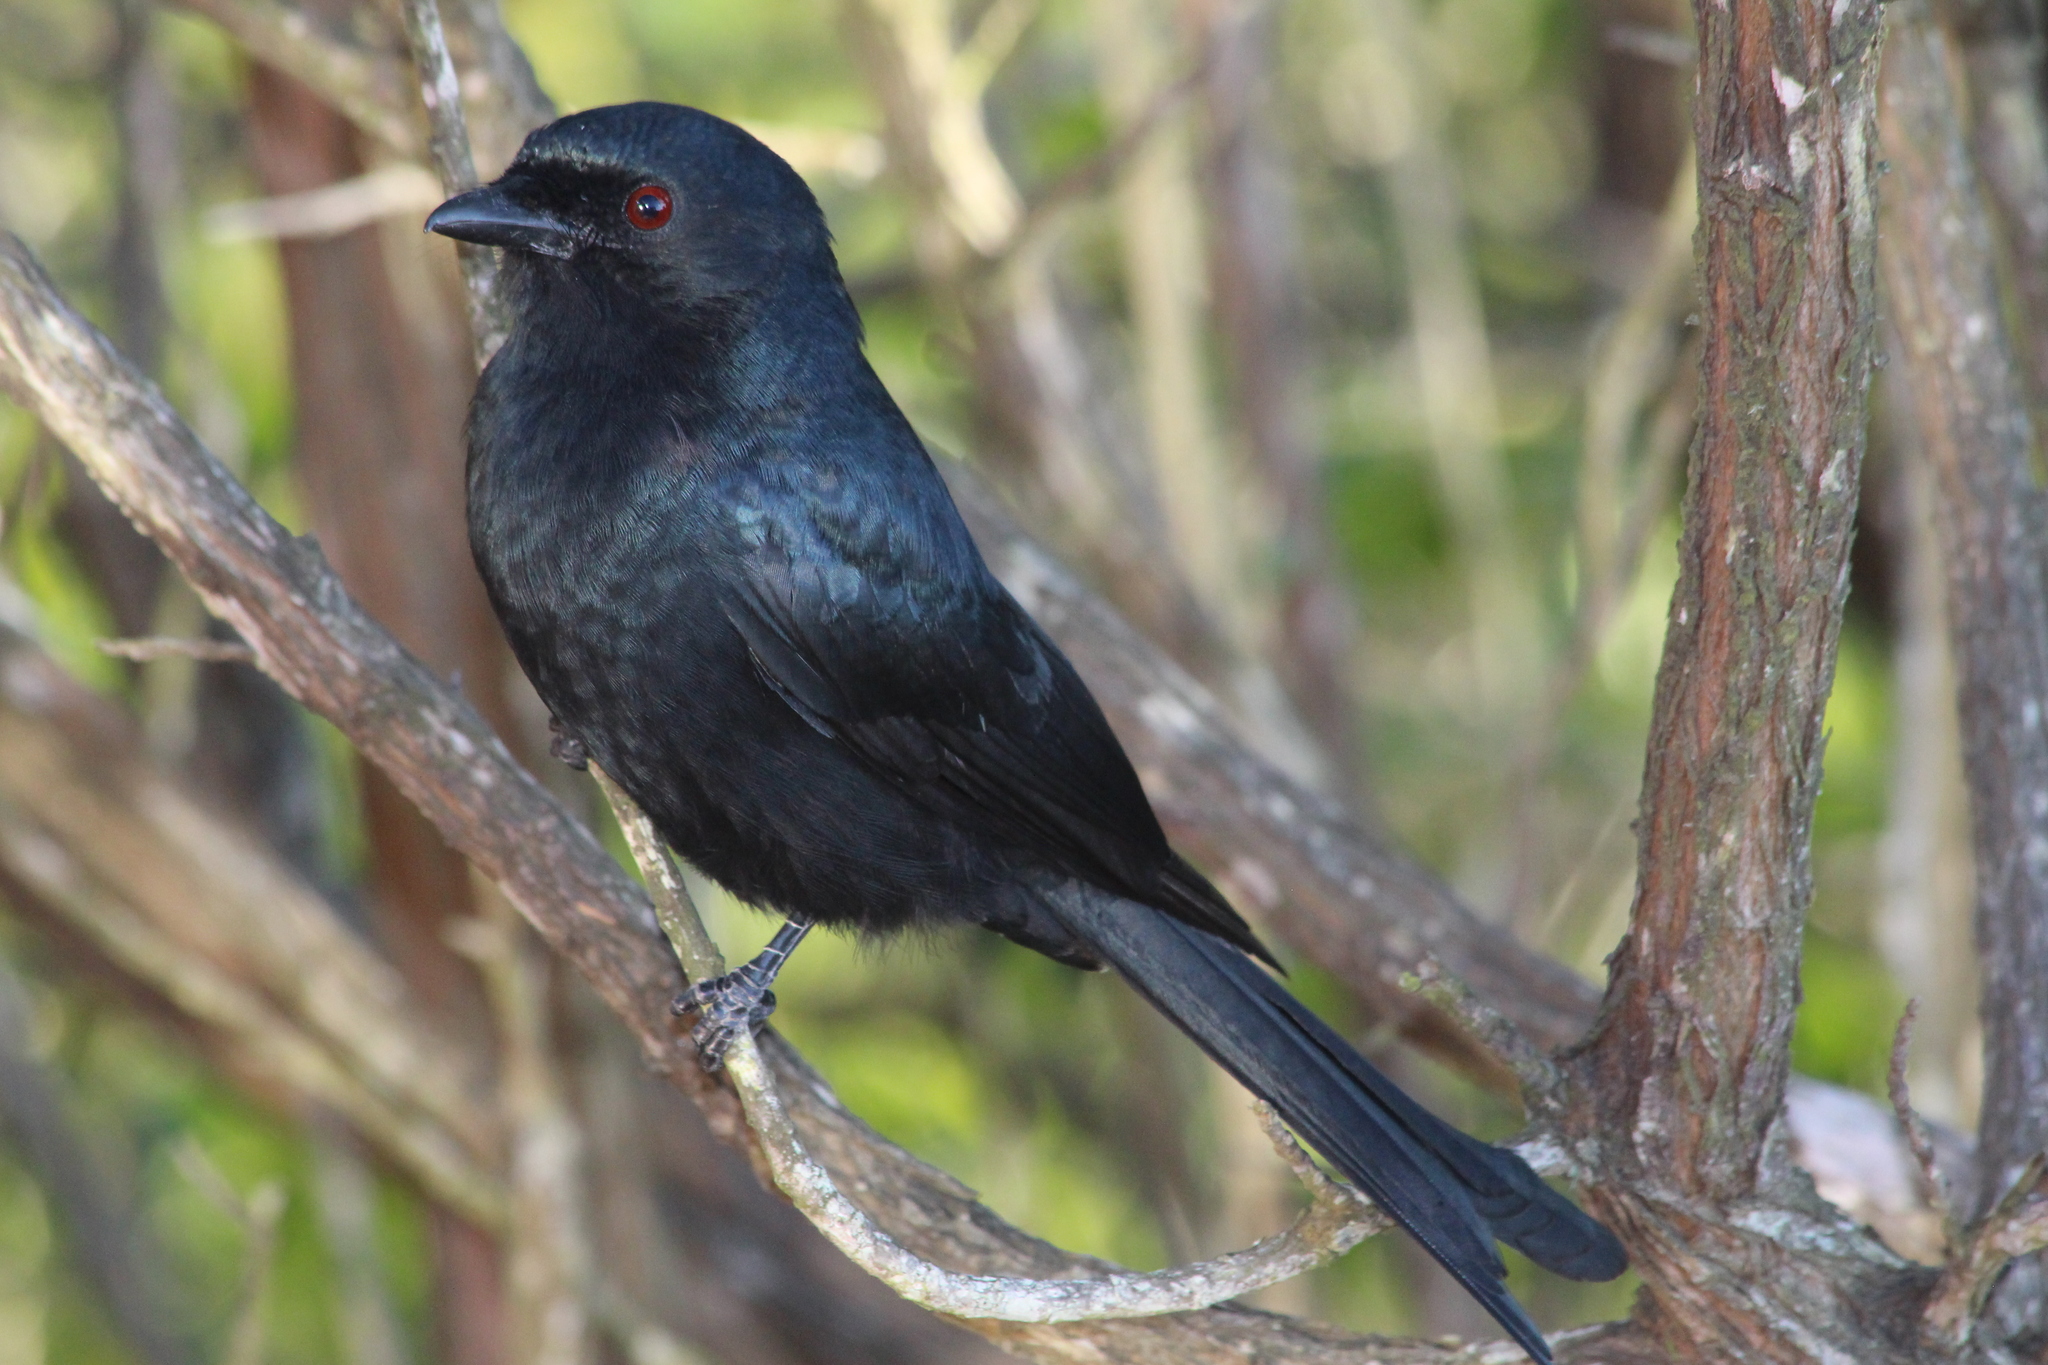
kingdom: Animalia
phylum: Chordata
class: Aves
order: Passeriformes
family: Dicruridae
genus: Dicrurus
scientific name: Dicrurus adsimilis
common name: Fork-tailed drongo
